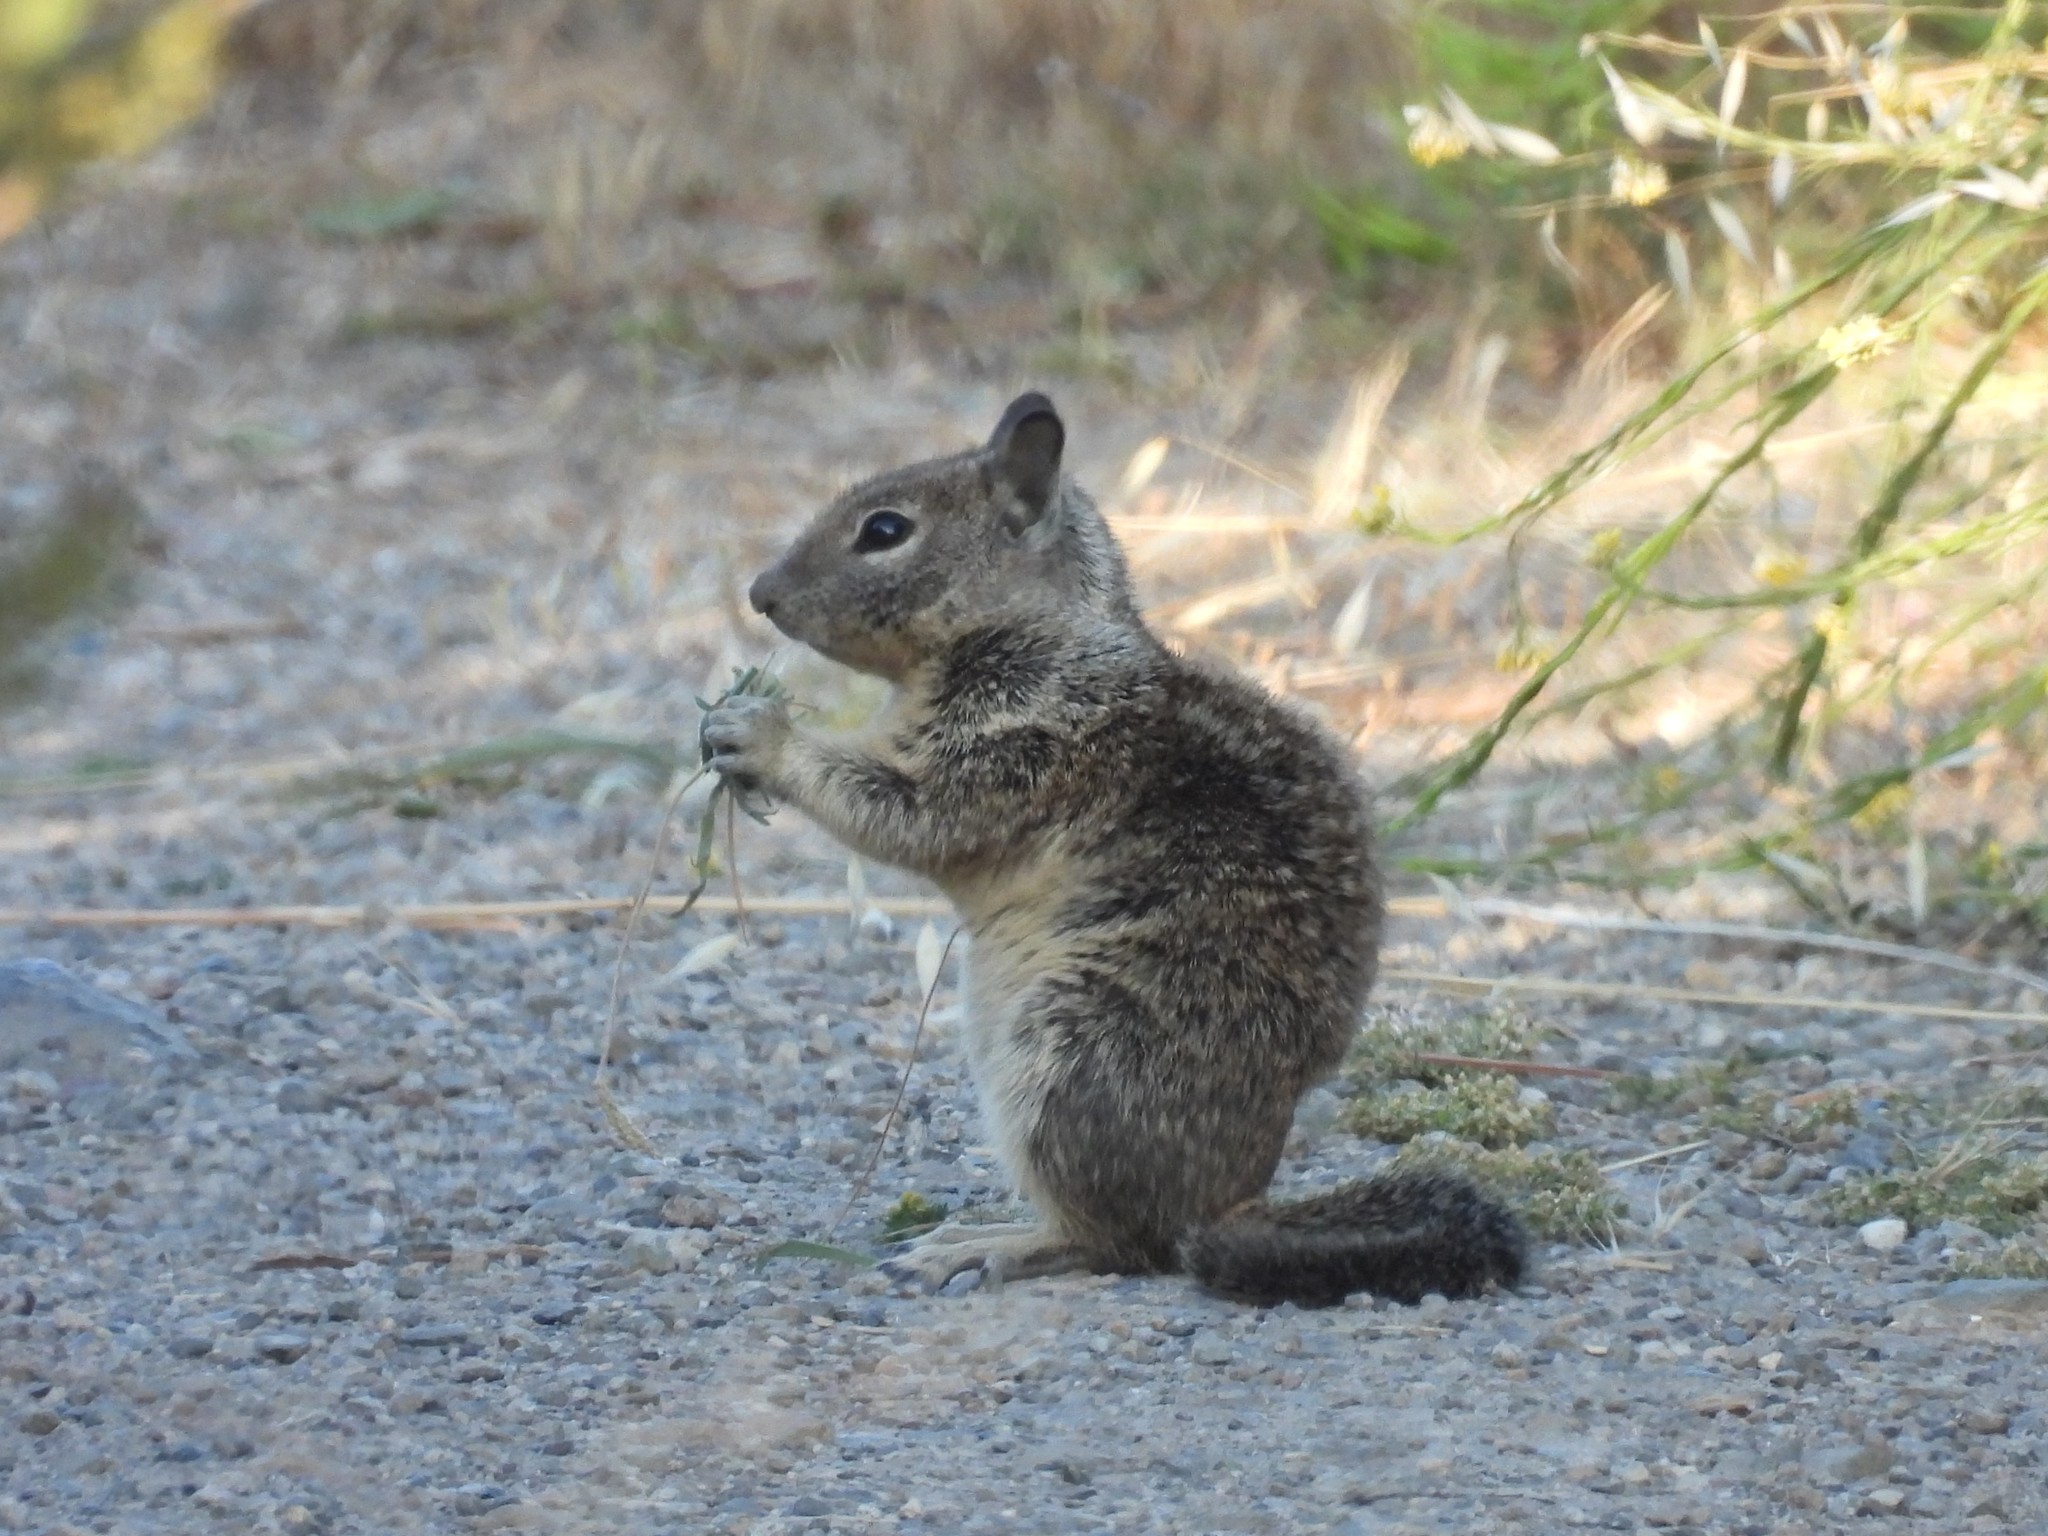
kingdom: Animalia
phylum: Chordata
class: Mammalia
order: Rodentia
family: Sciuridae
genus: Otospermophilus
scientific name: Otospermophilus beecheyi
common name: California ground squirrel
